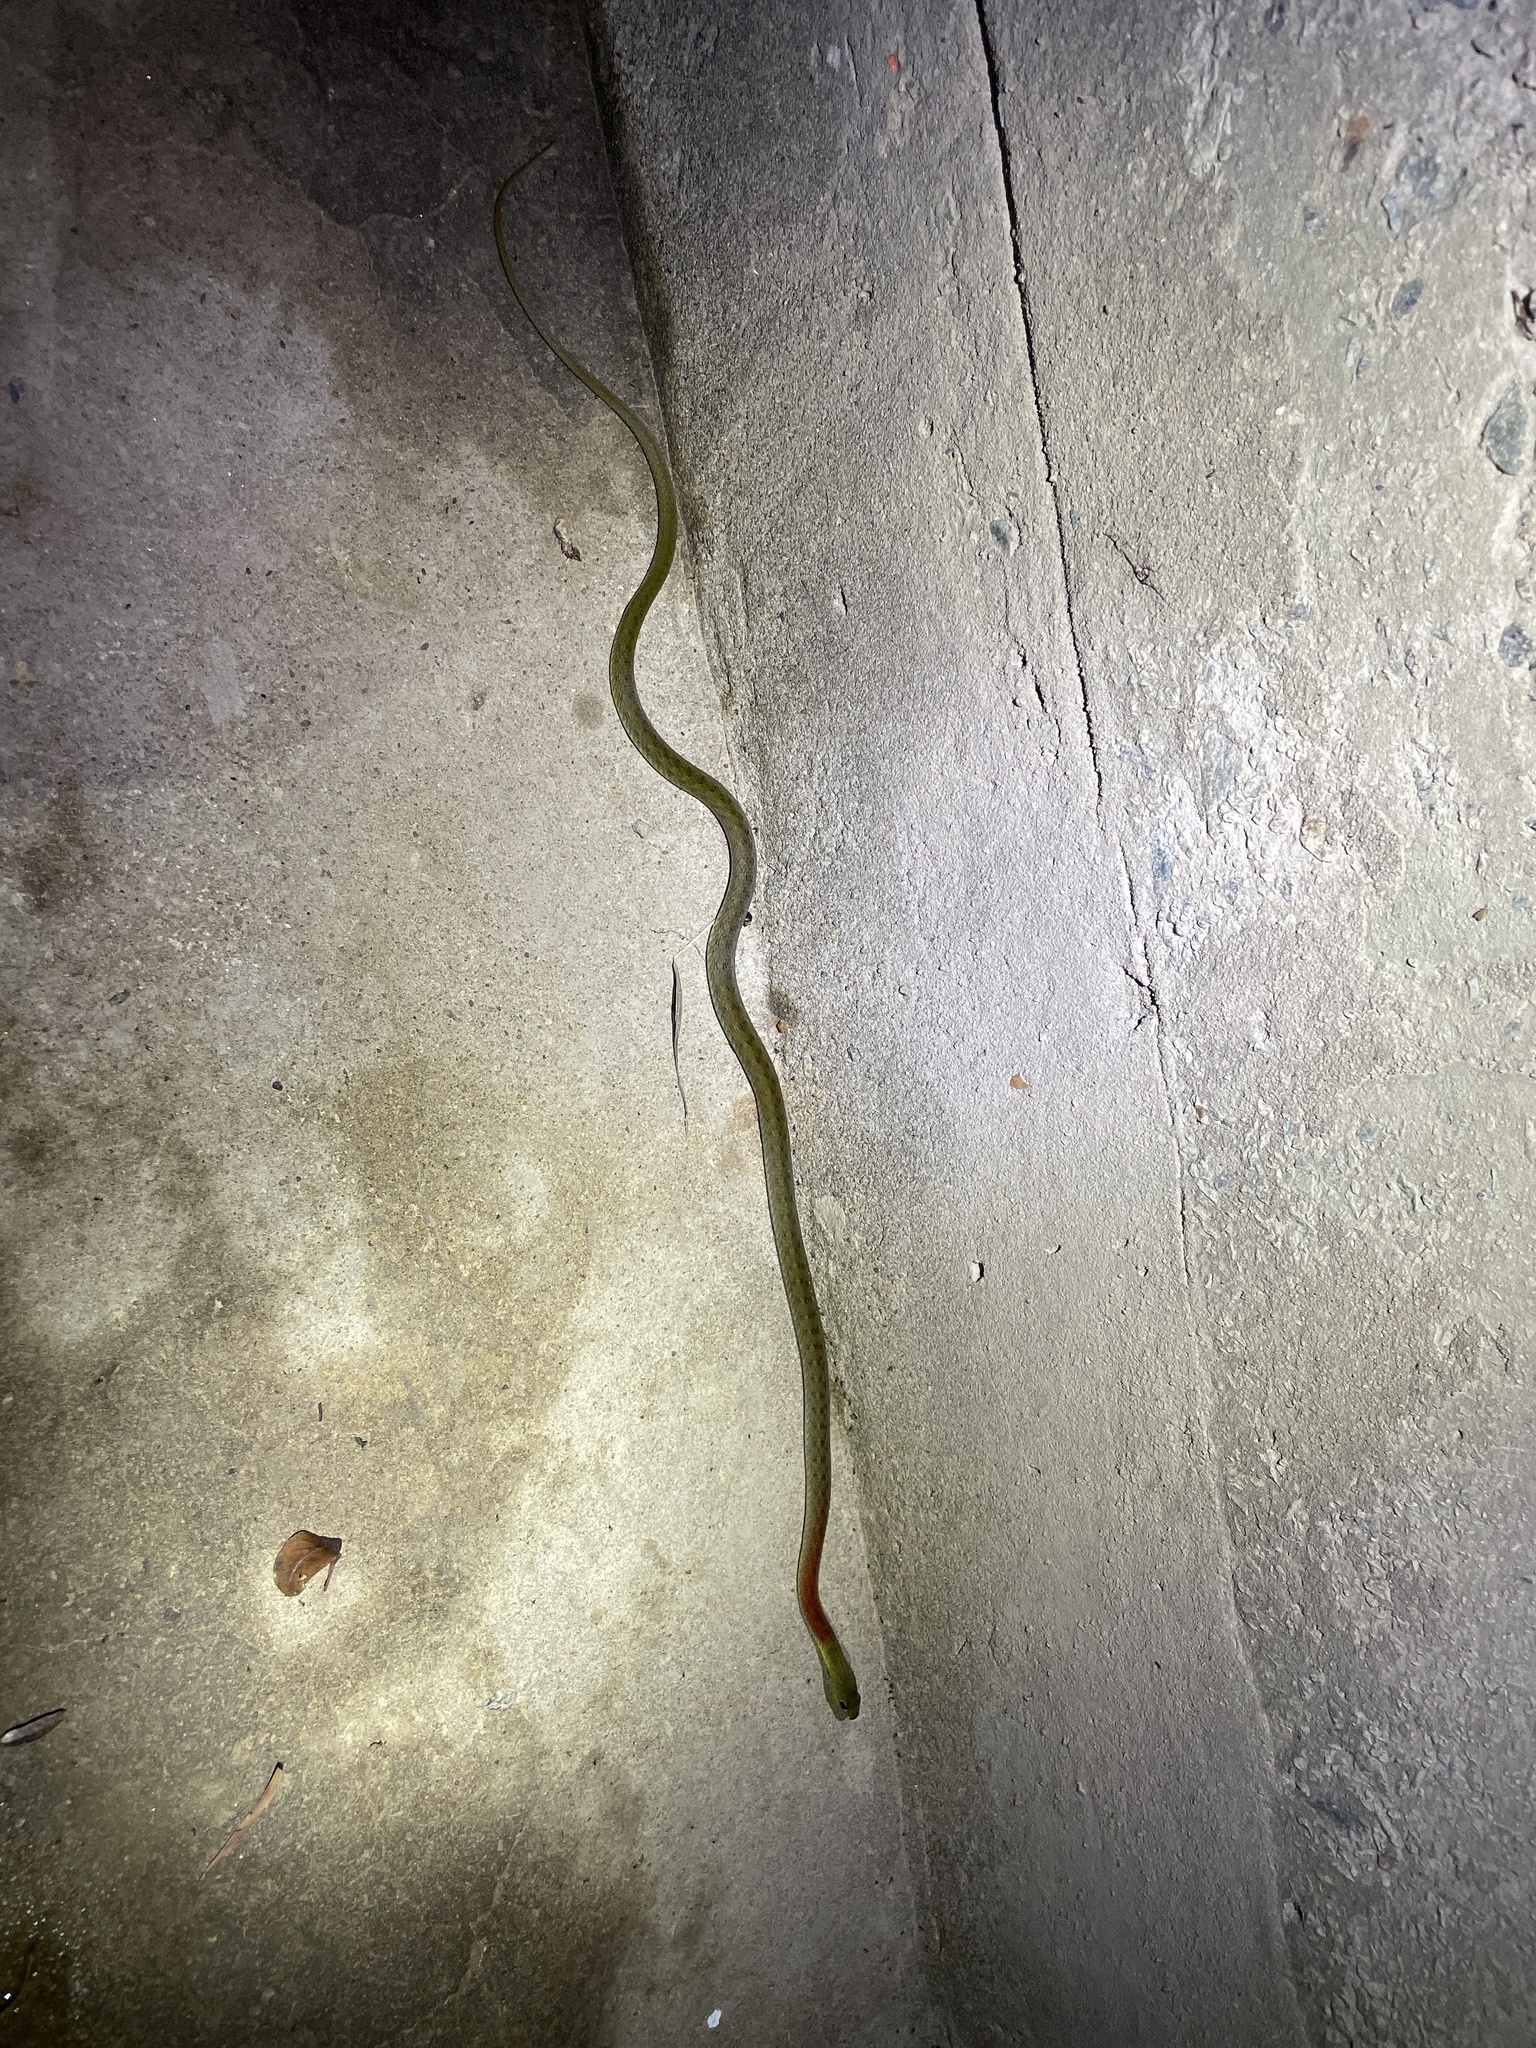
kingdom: Animalia
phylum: Chordata
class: Squamata
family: Colubridae
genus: Rhabdophis
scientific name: Rhabdophis helleri
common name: Heller’s red-necked keelback
